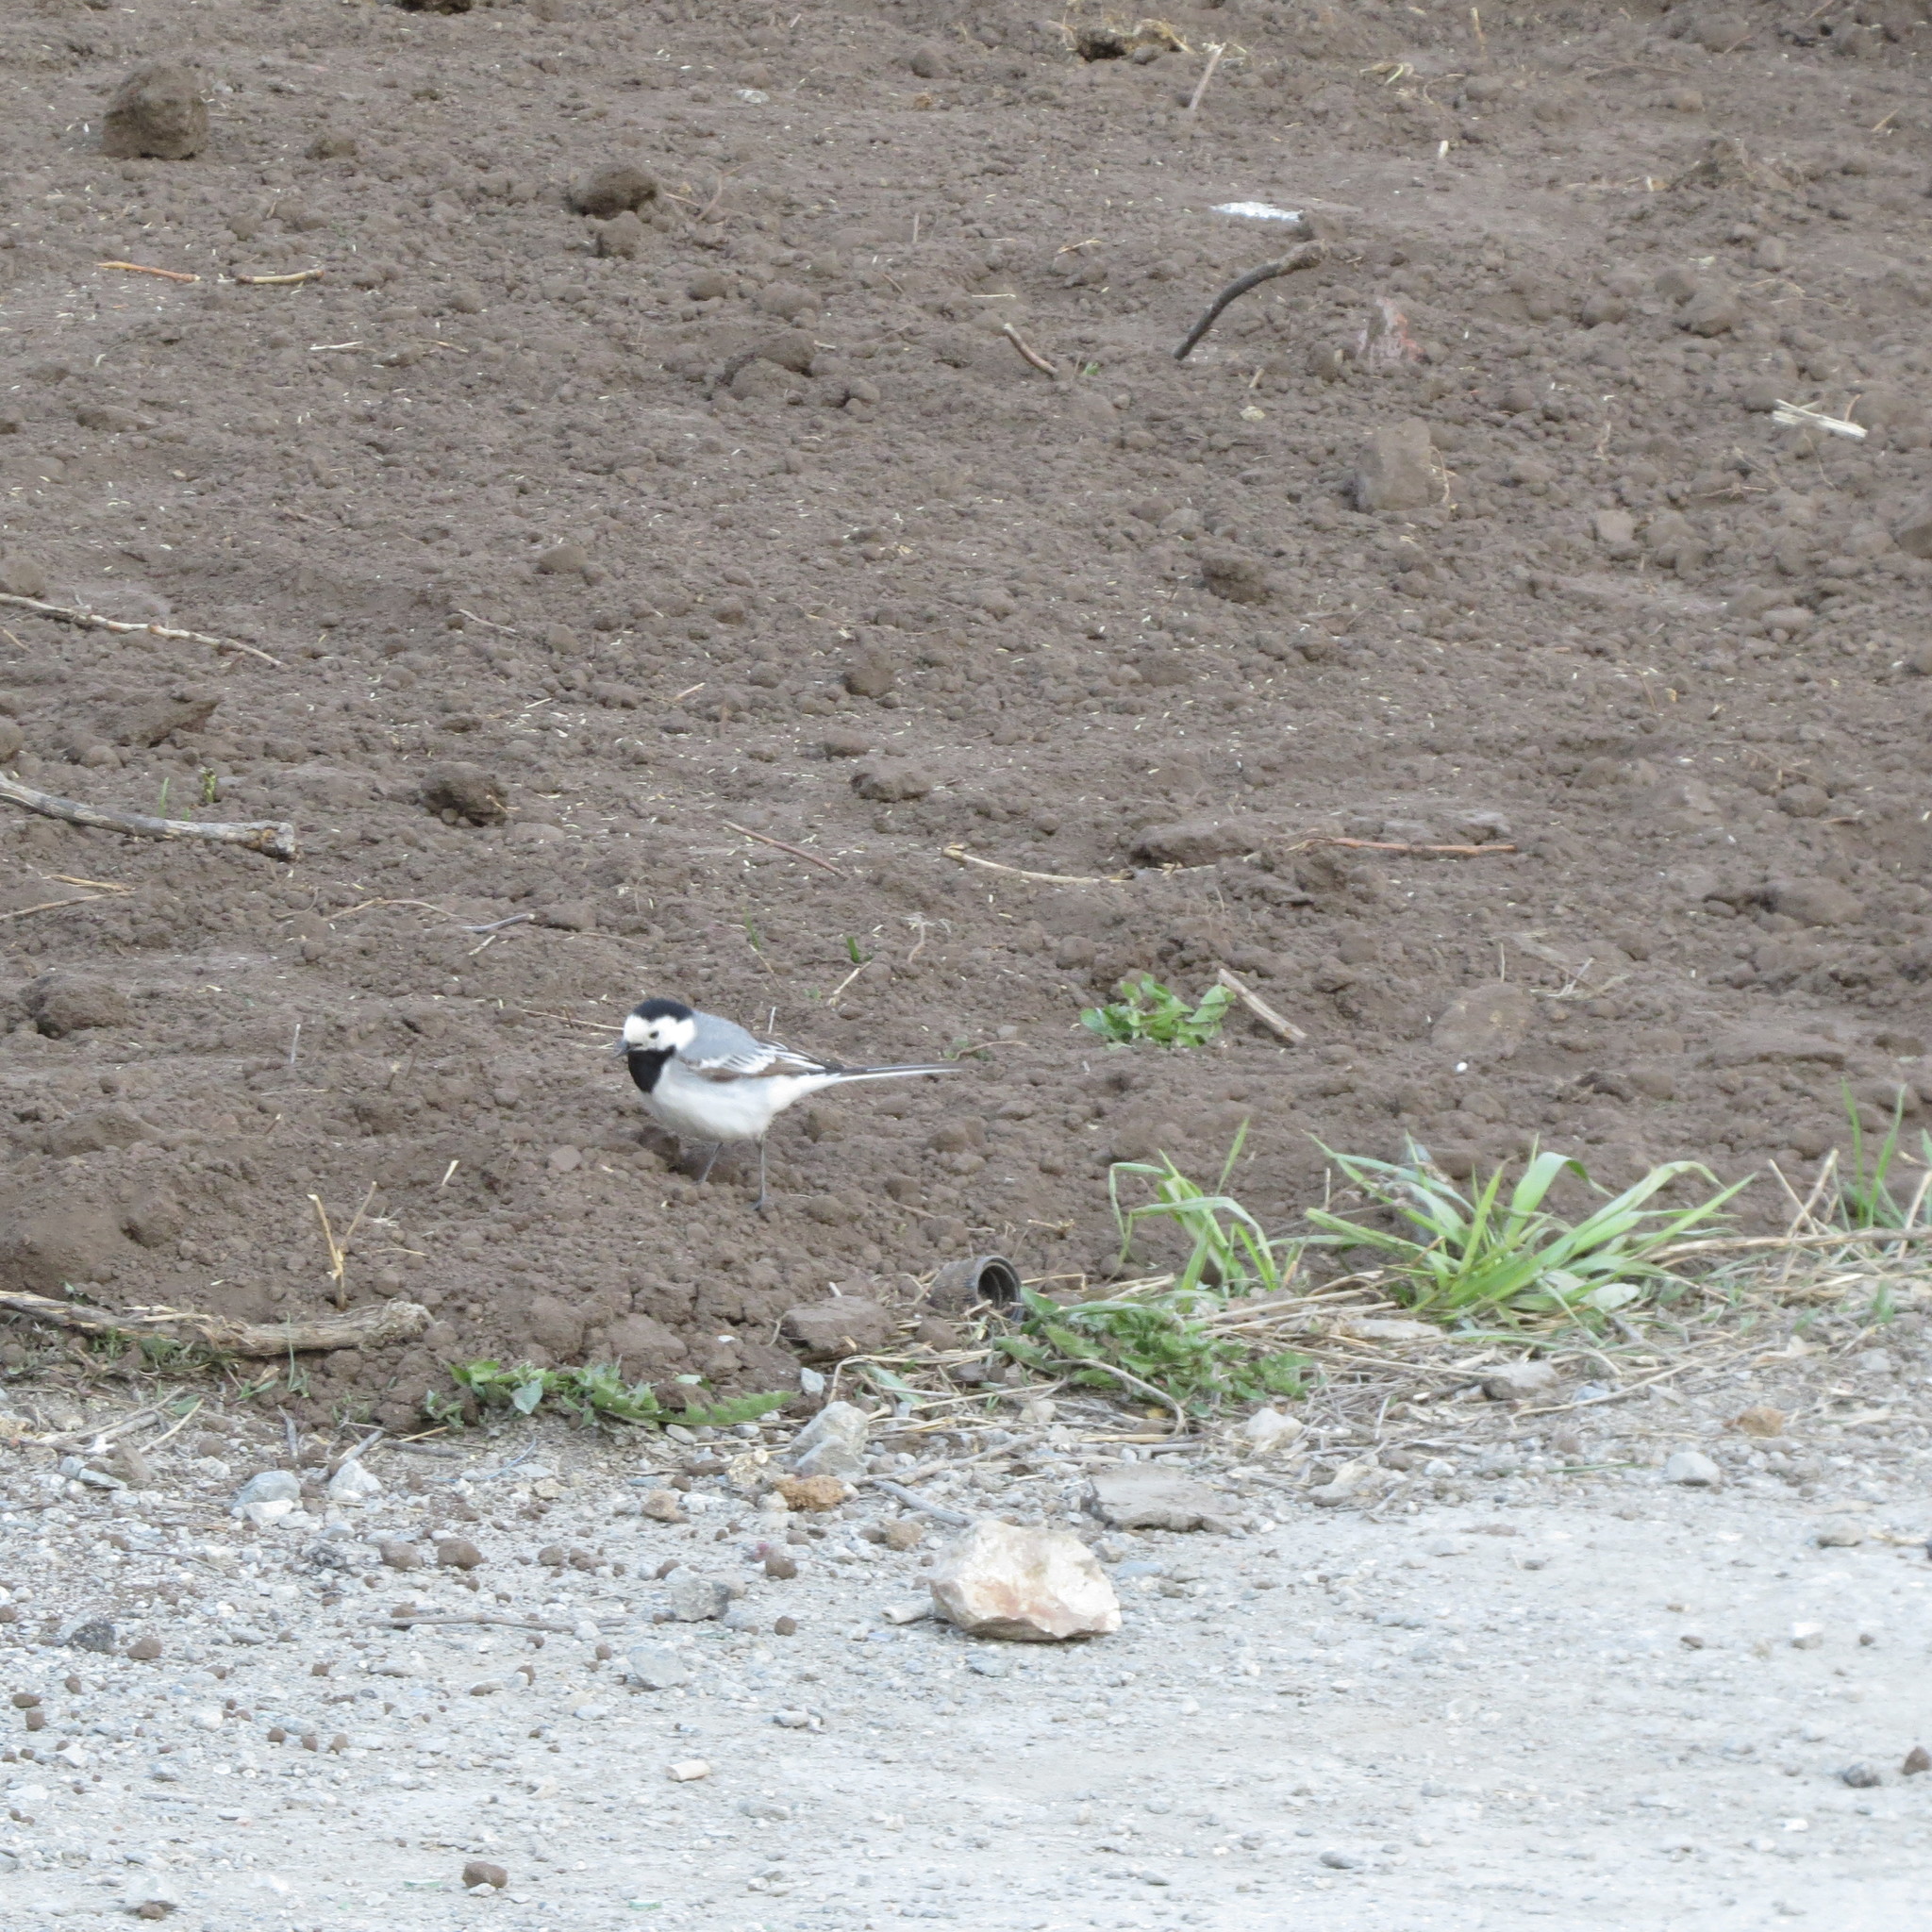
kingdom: Animalia
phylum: Chordata
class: Aves
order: Passeriformes
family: Motacillidae
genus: Motacilla
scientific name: Motacilla alba
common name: White wagtail
